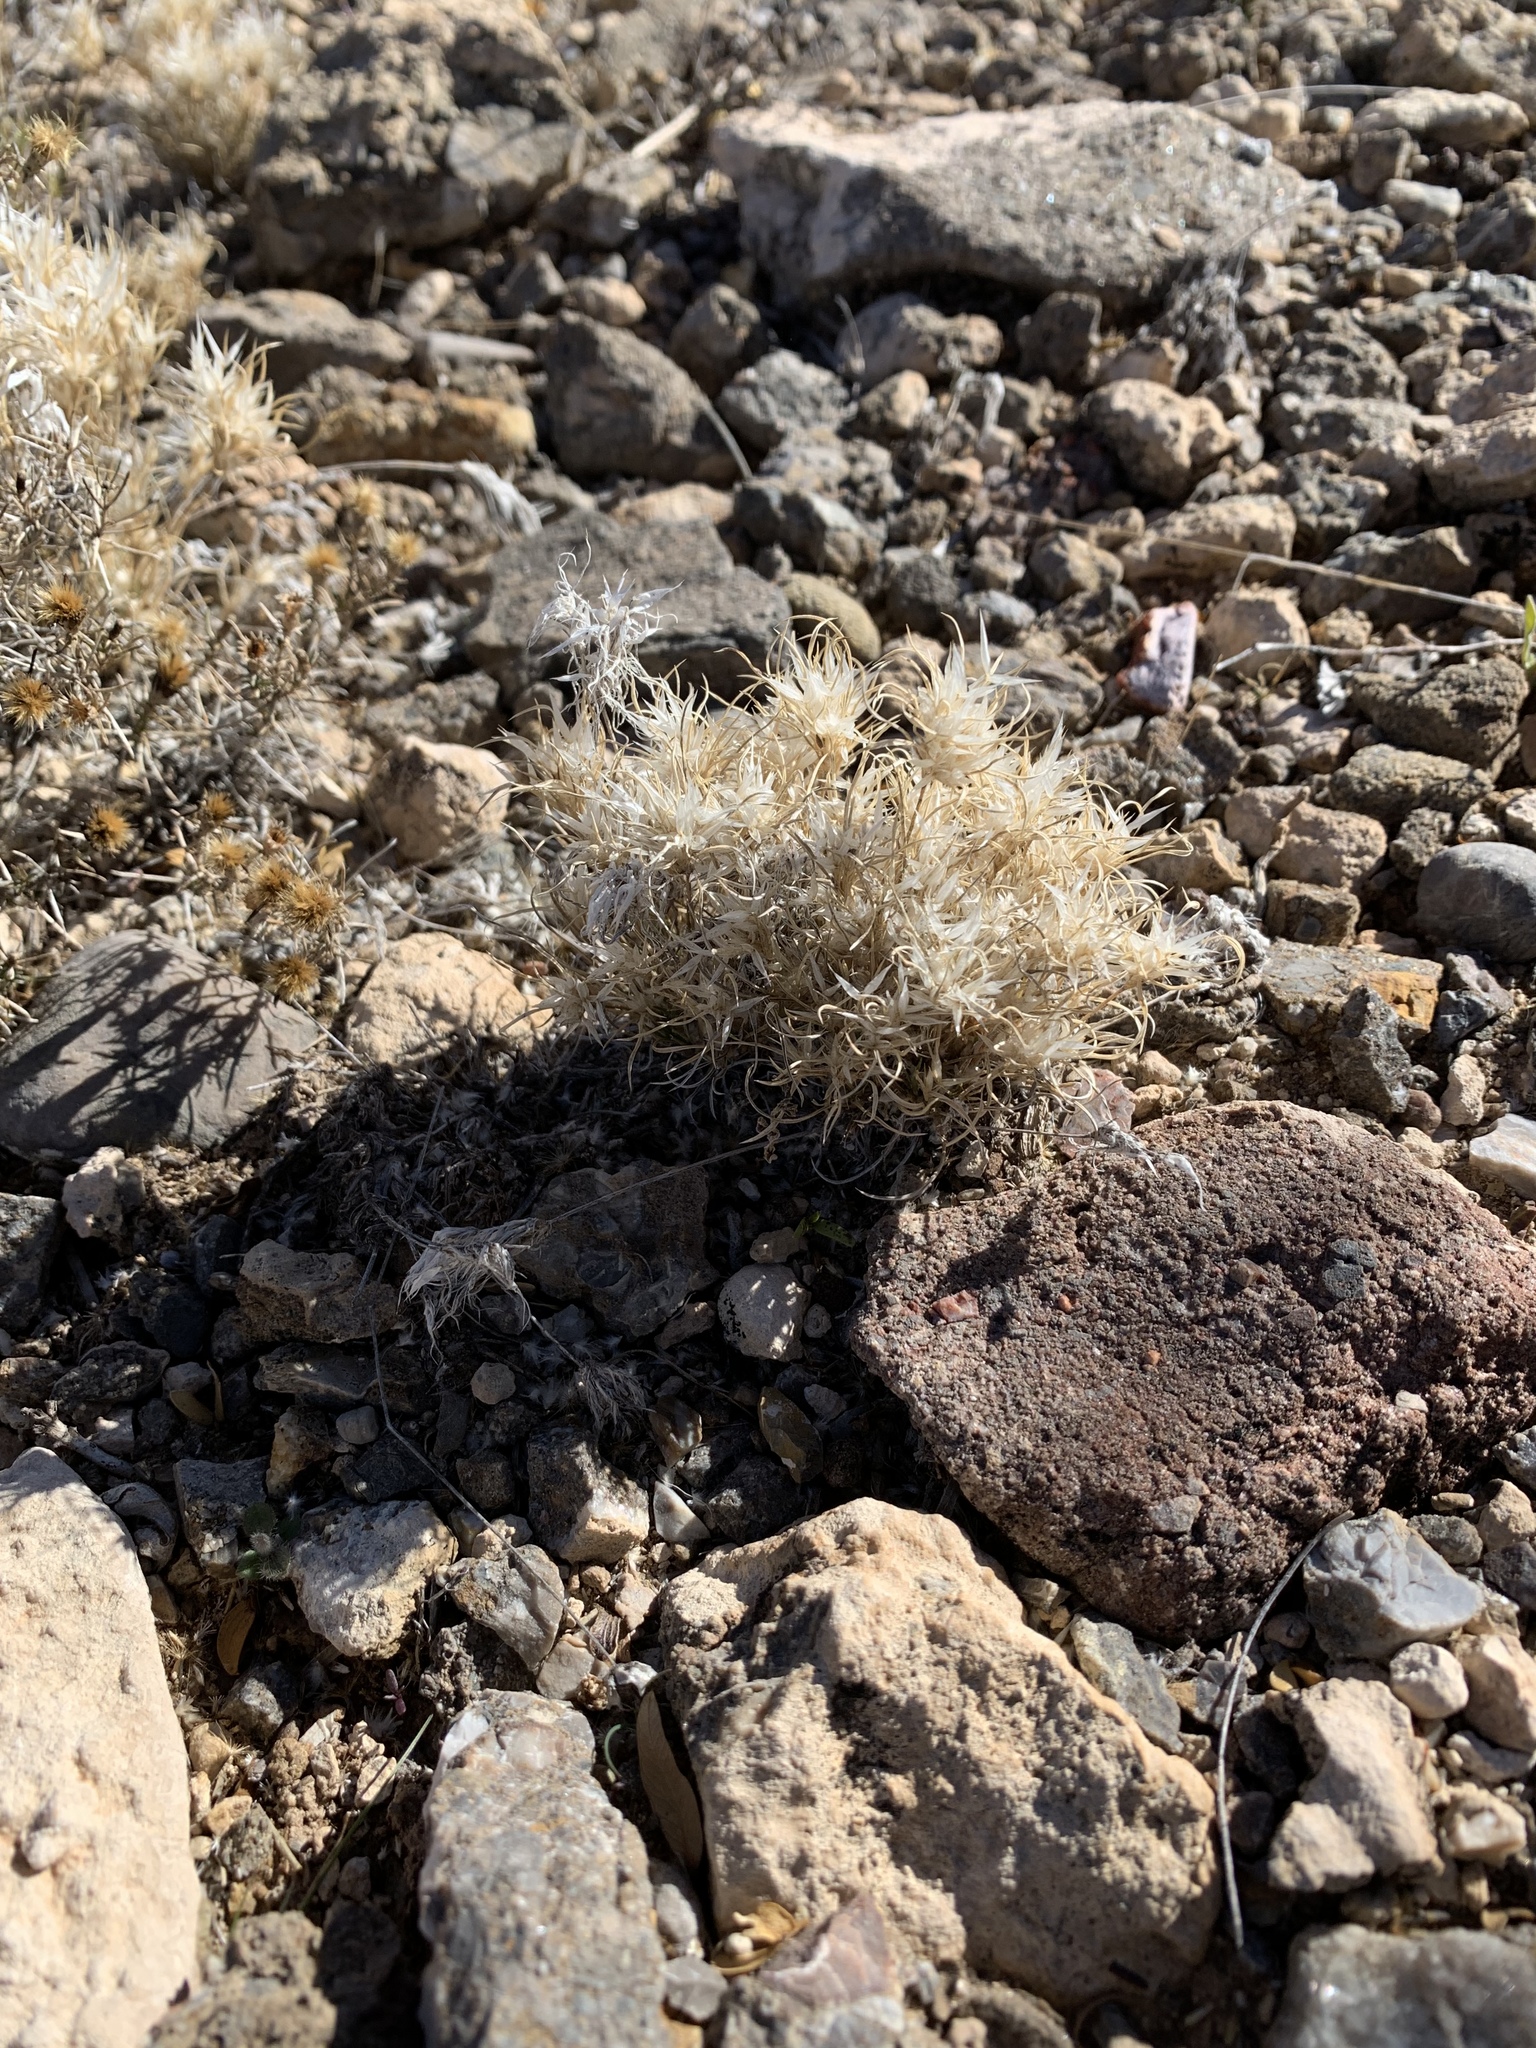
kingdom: Plantae
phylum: Tracheophyta
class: Liliopsida
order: Poales
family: Poaceae
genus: Dasyochloa
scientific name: Dasyochloa pulchella
